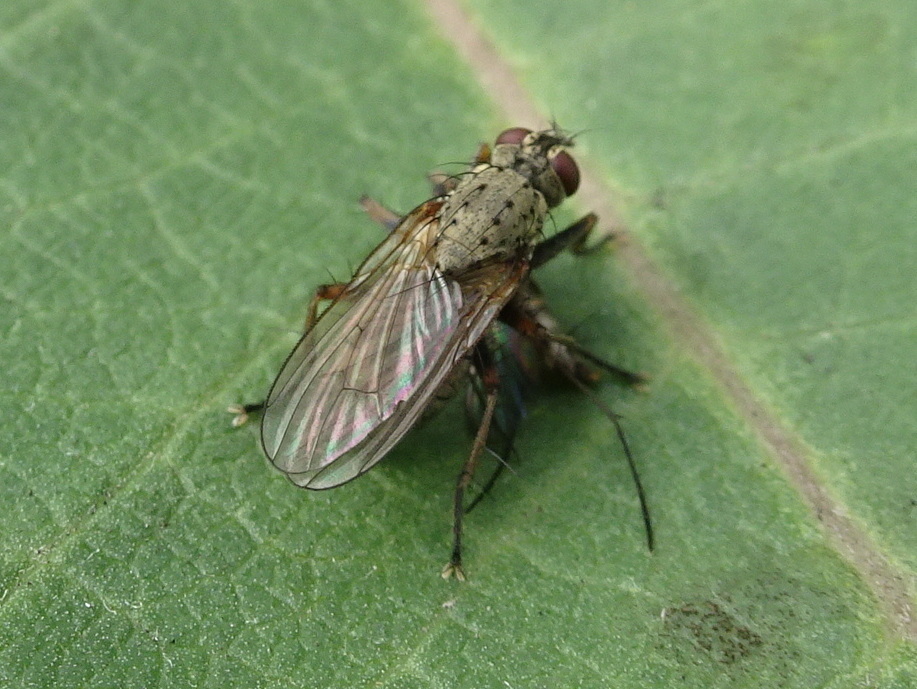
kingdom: Animalia
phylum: Arthropoda
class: Insecta
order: Diptera
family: Muscidae
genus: Coenosia
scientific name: Coenosia tigrina
